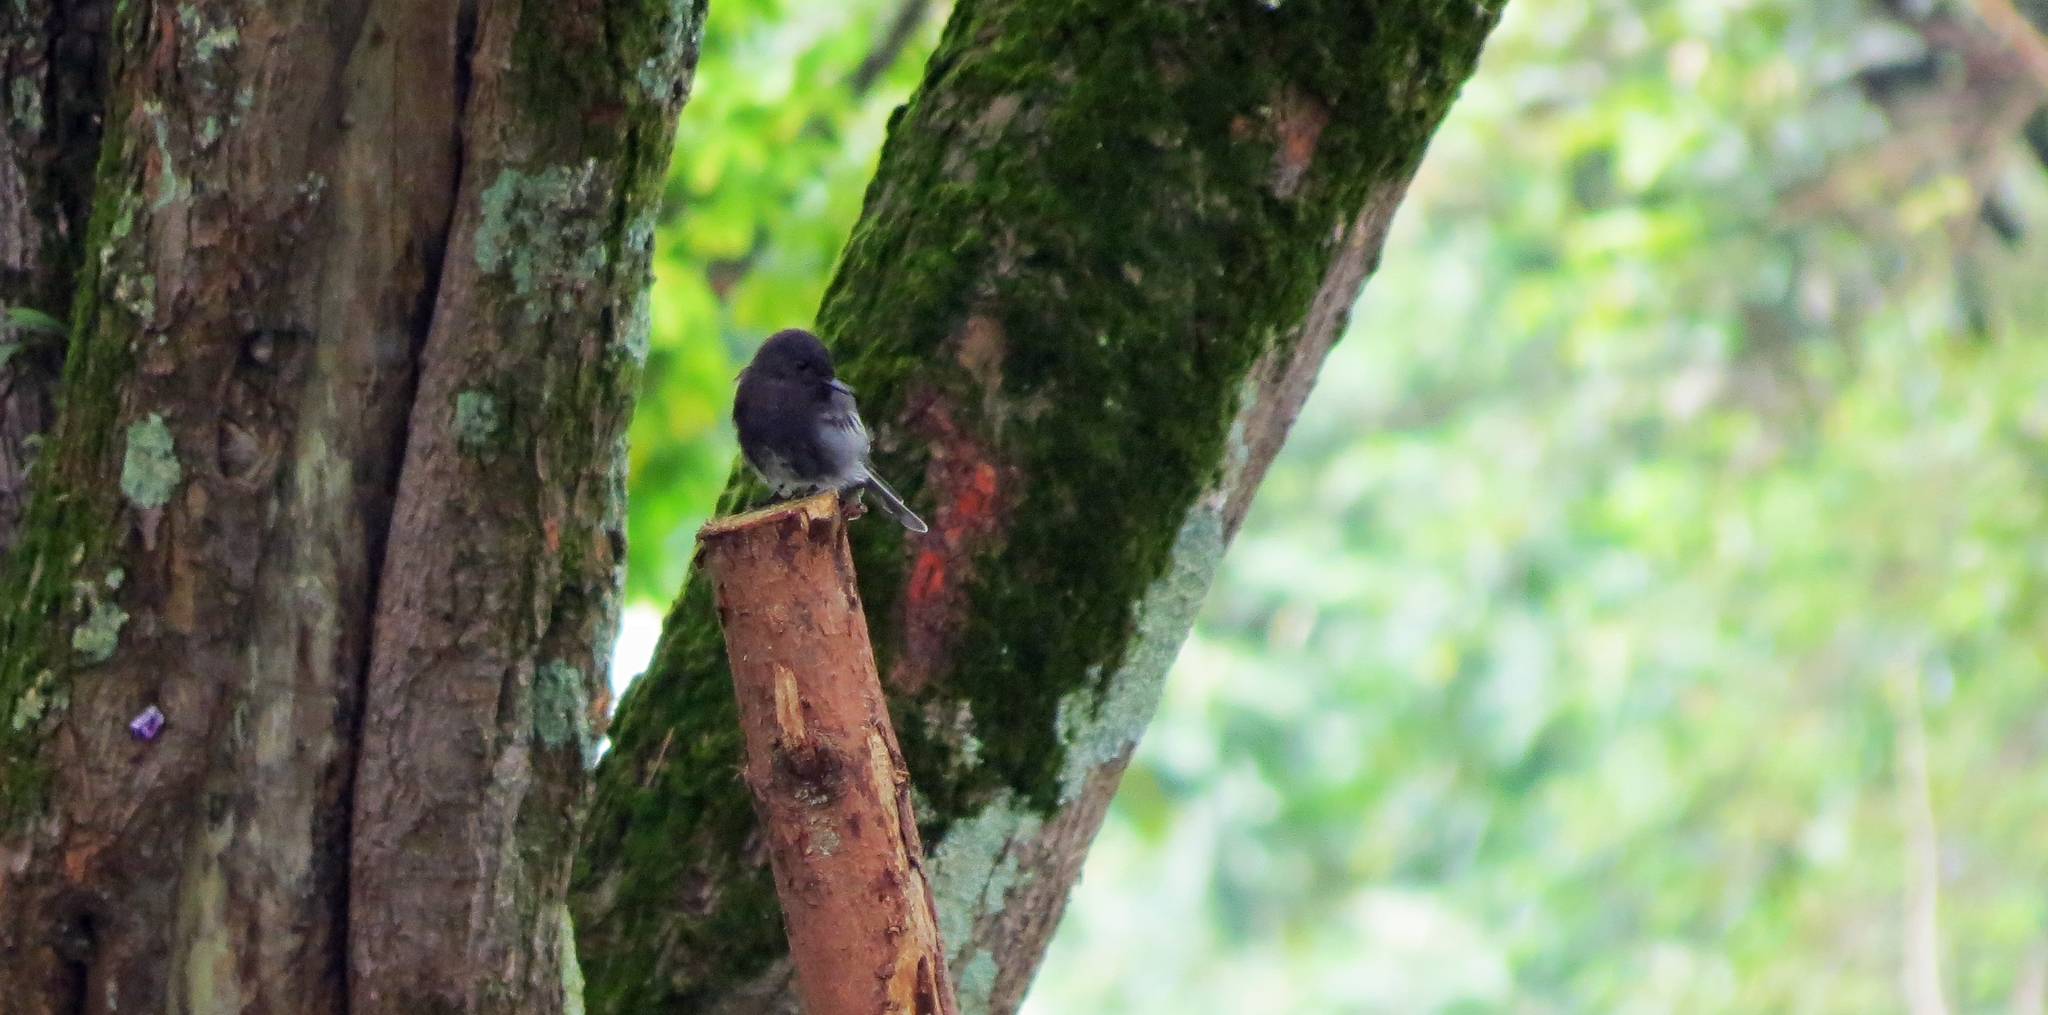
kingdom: Animalia
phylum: Chordata
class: Aves
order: Passeriformes
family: Tyrannidae
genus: Sayornis
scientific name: Sayornis nigricans
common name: Black phoebe
